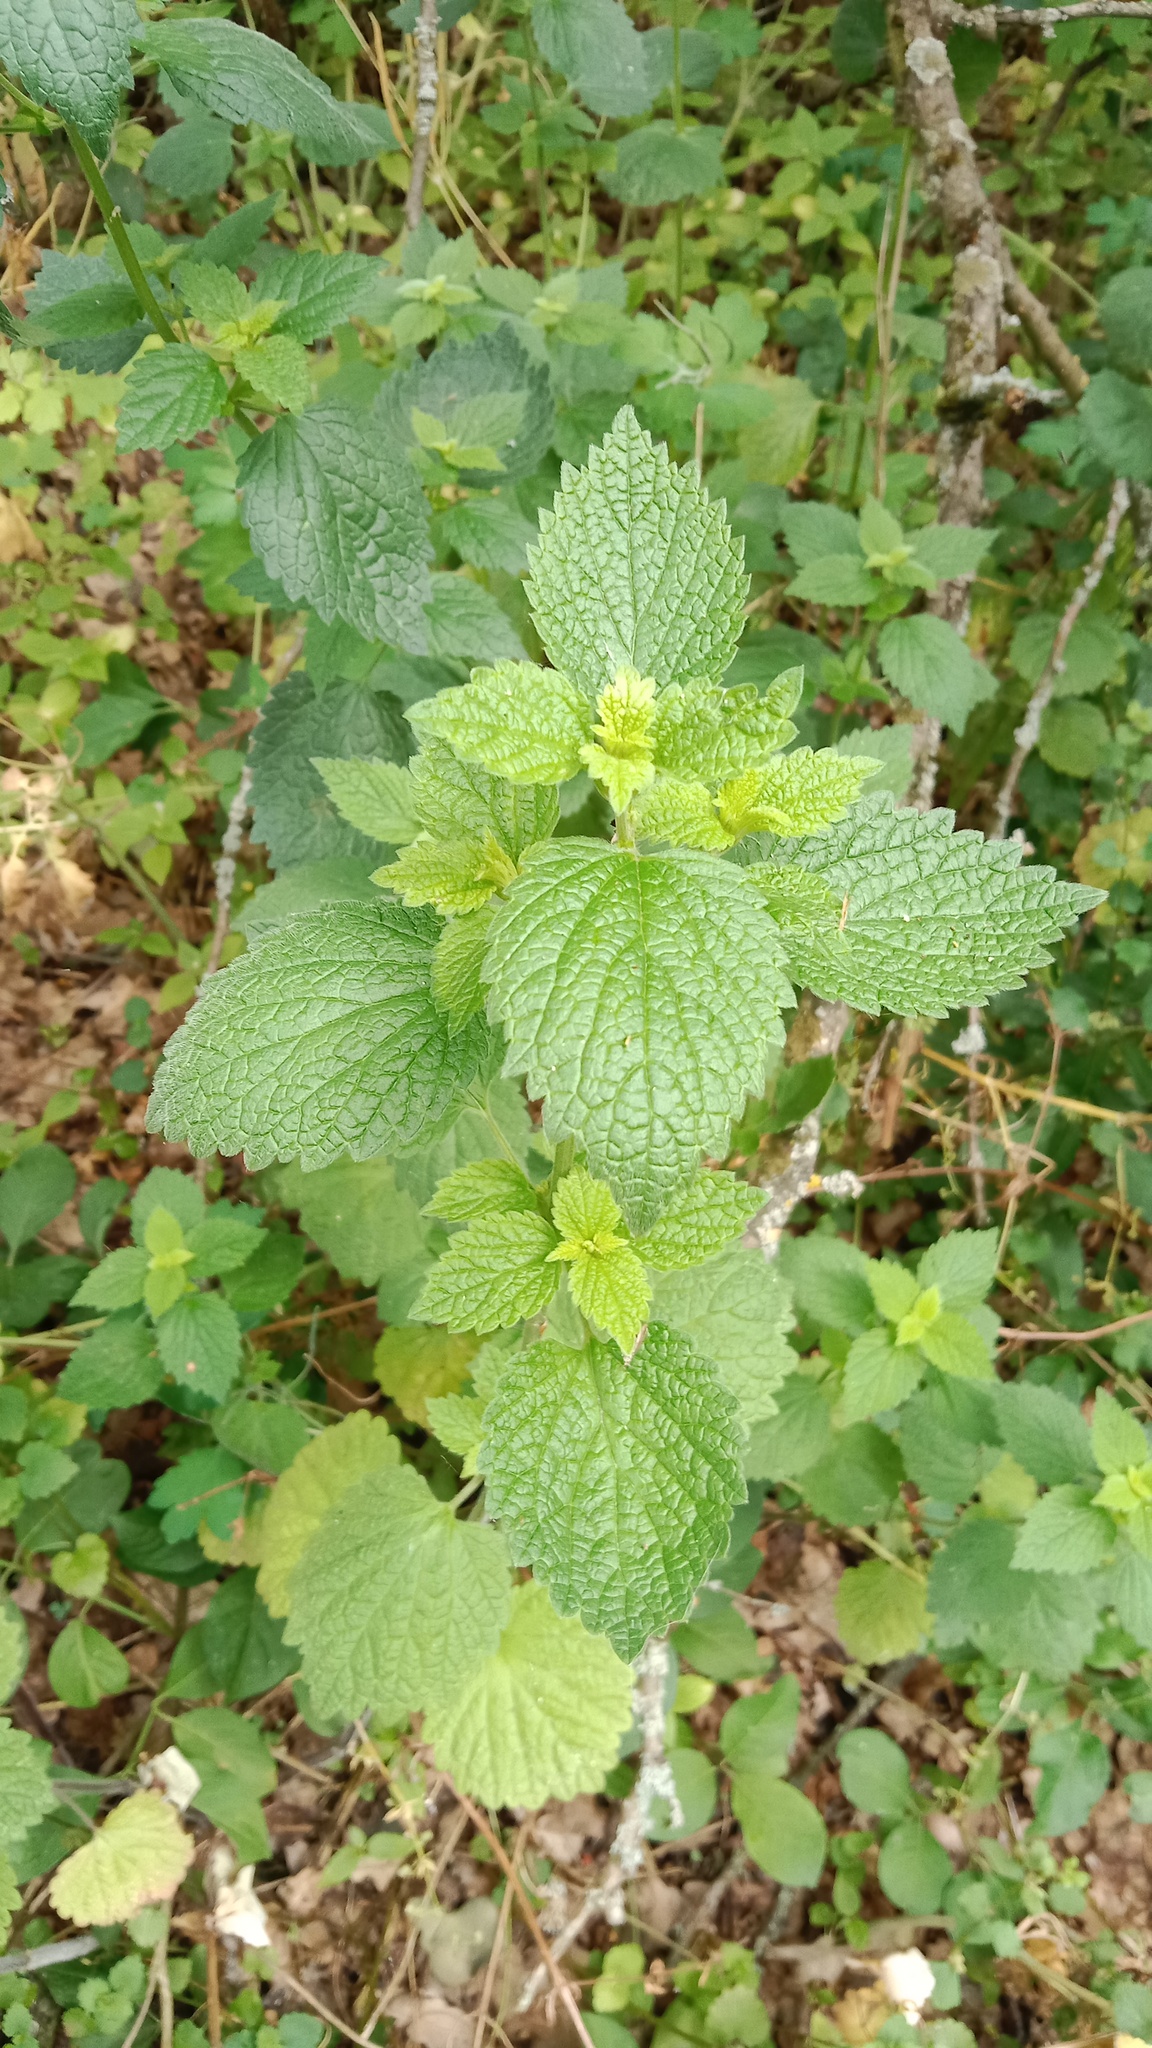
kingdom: Plantae
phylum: Tracheophyta
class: Magnoliopsida
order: Lamiales
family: Lamiaceae
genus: Ballota
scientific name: Ballota nigra
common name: Black horehound
